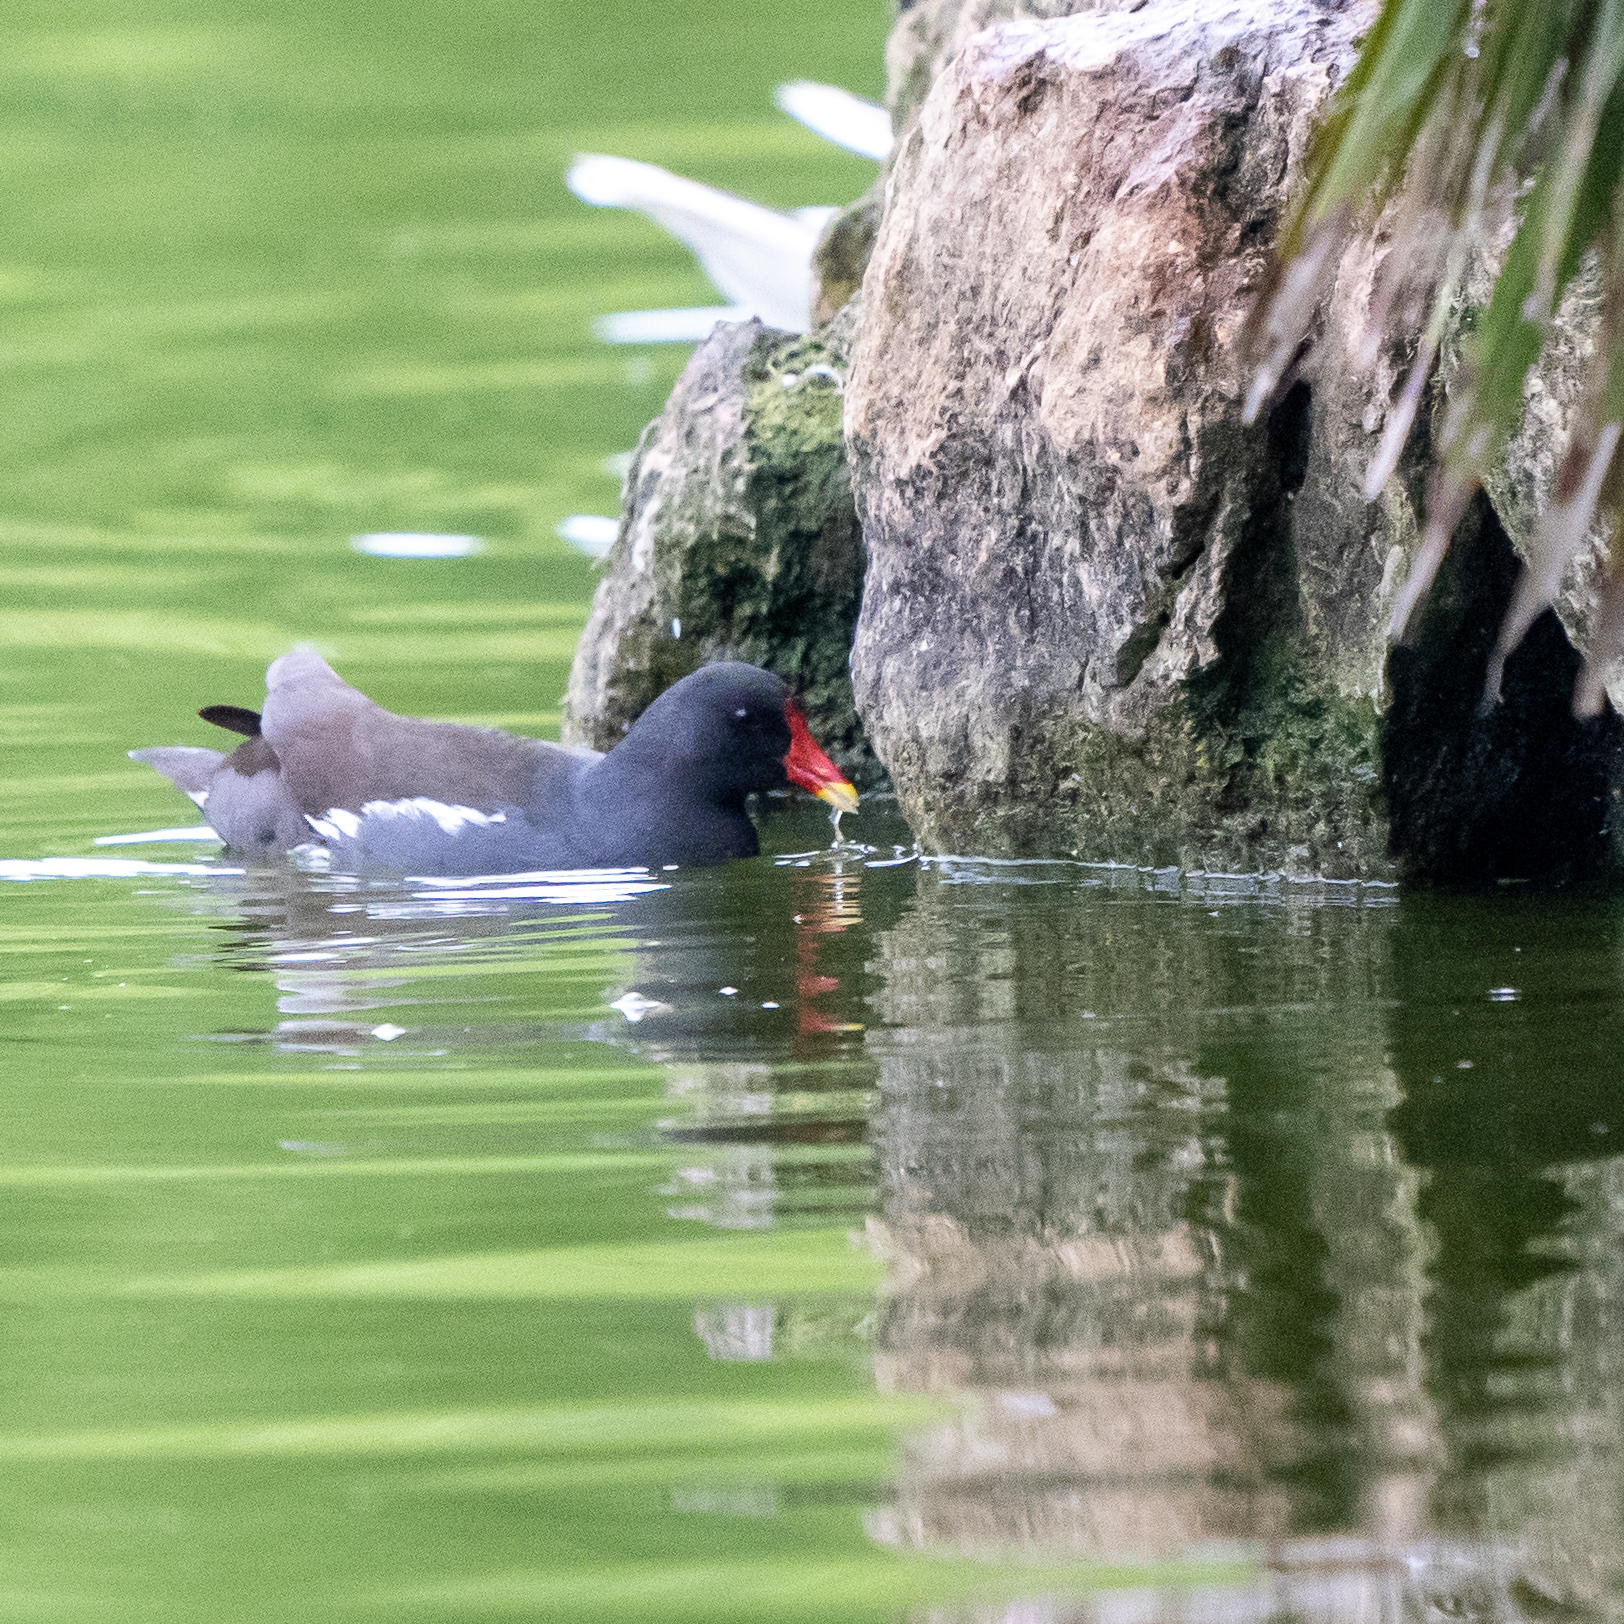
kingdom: Animalia
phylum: Chordata
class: Aves
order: Gruiformes
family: Rallidae
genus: Gallinula
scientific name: Gallinula chloropus
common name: Common moorhen
